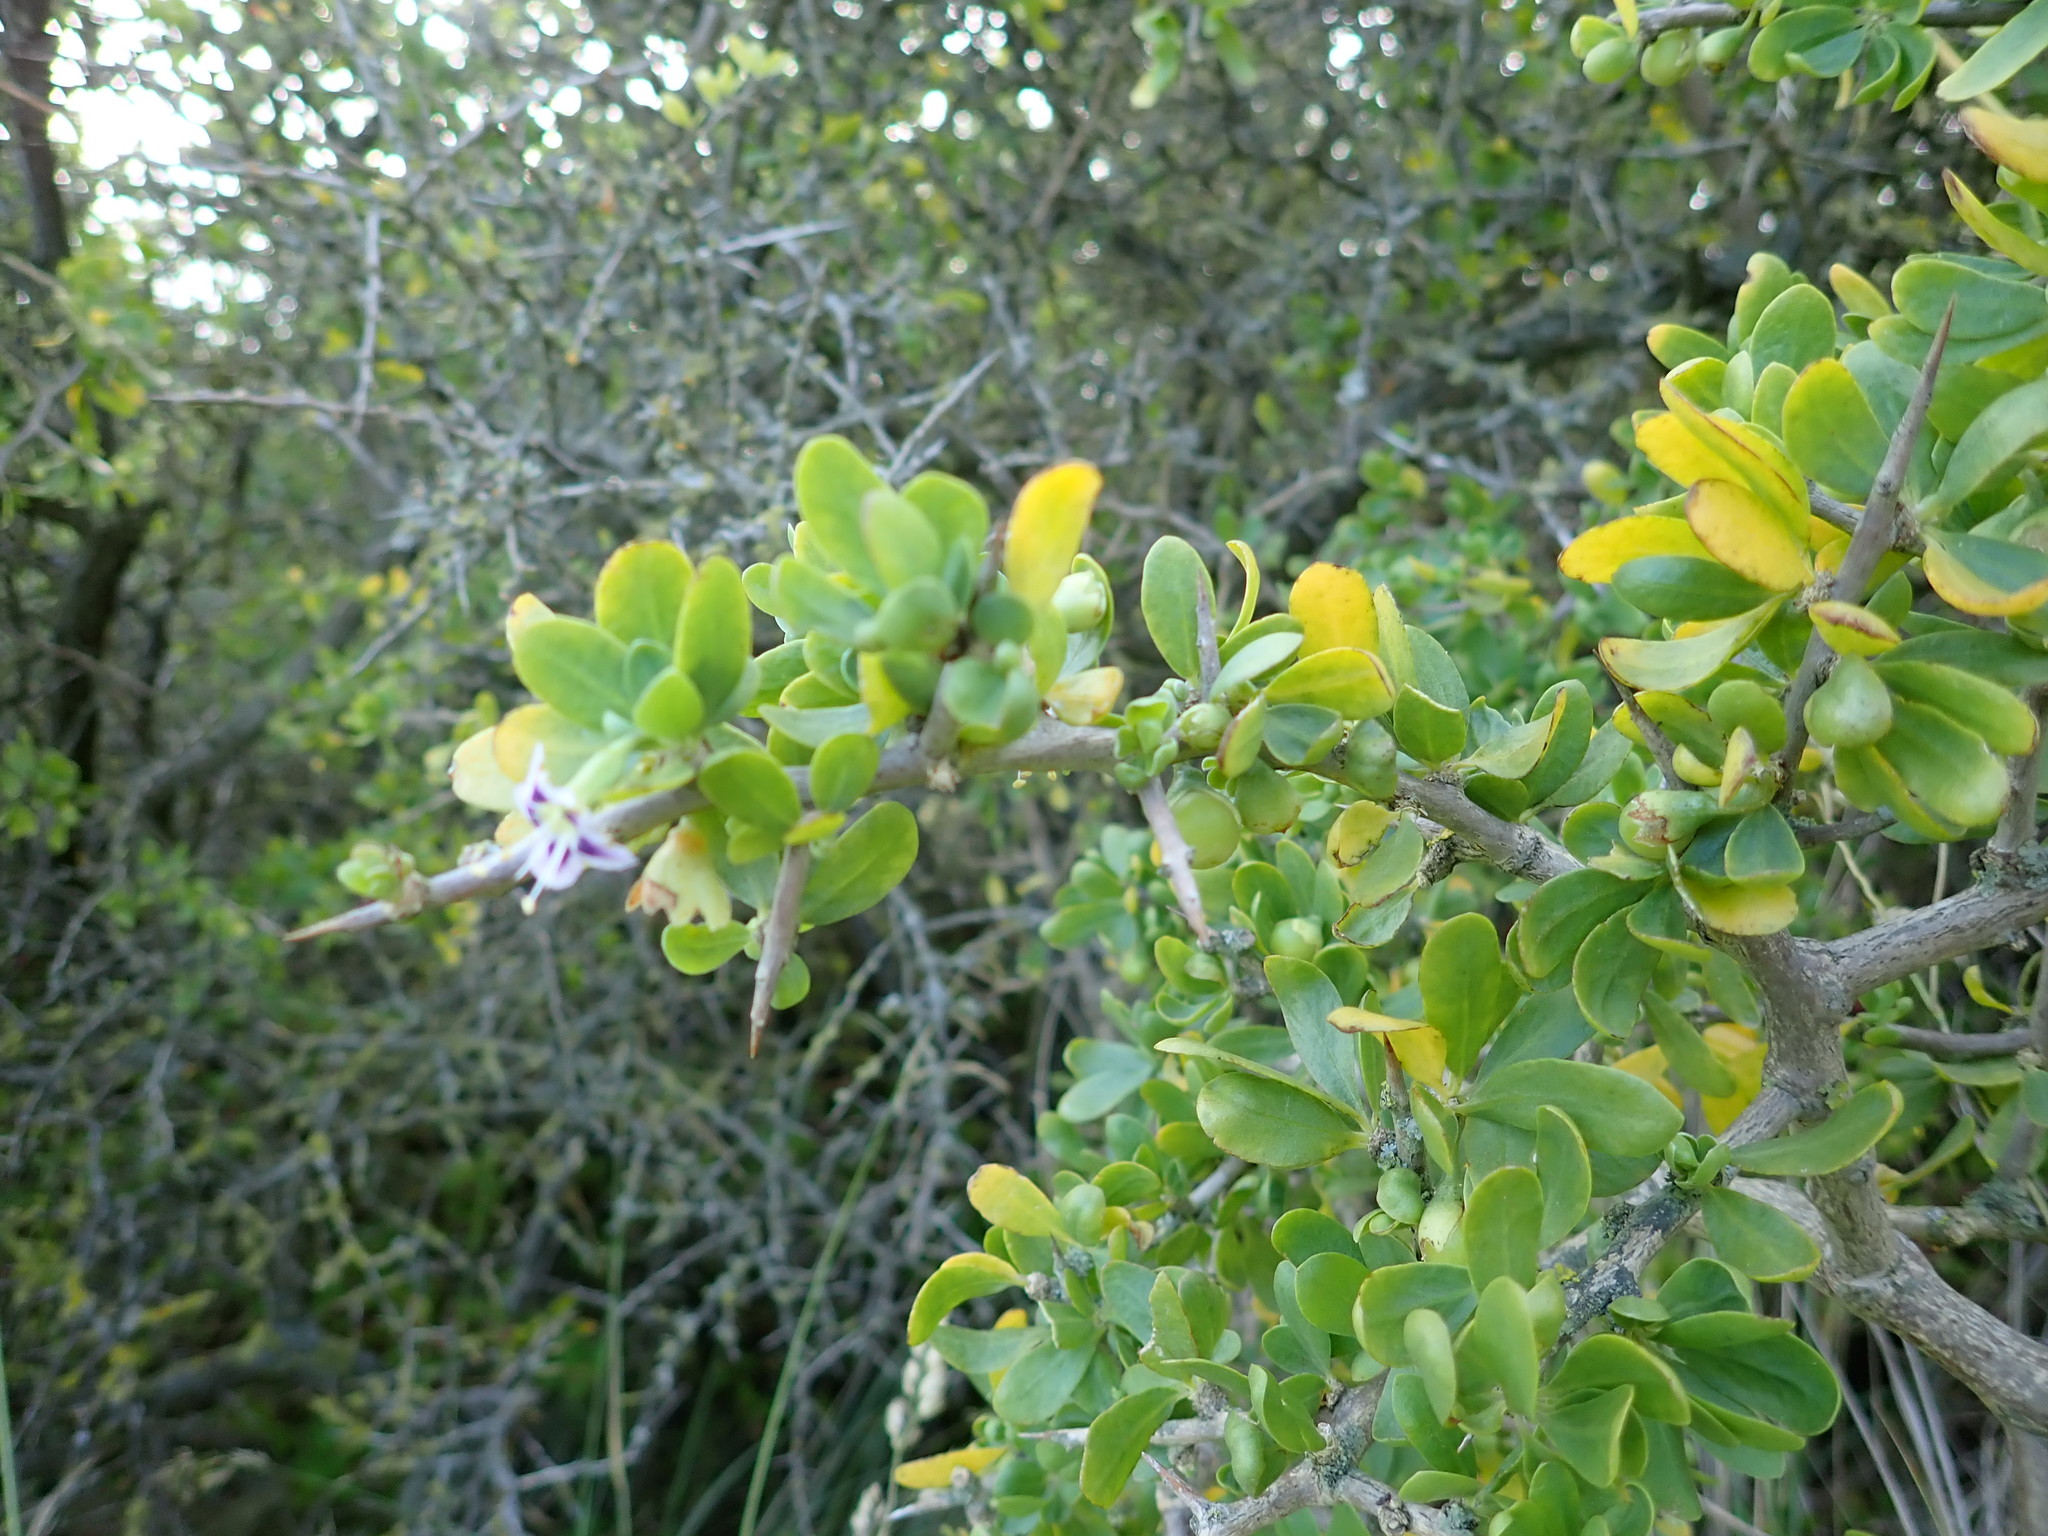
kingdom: Plantae
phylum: Tracheophyta
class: Magnoliopsida
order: Solanales
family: Solanaceae
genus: Lycium
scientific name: Lycium ferocissimum
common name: African boxthorn
